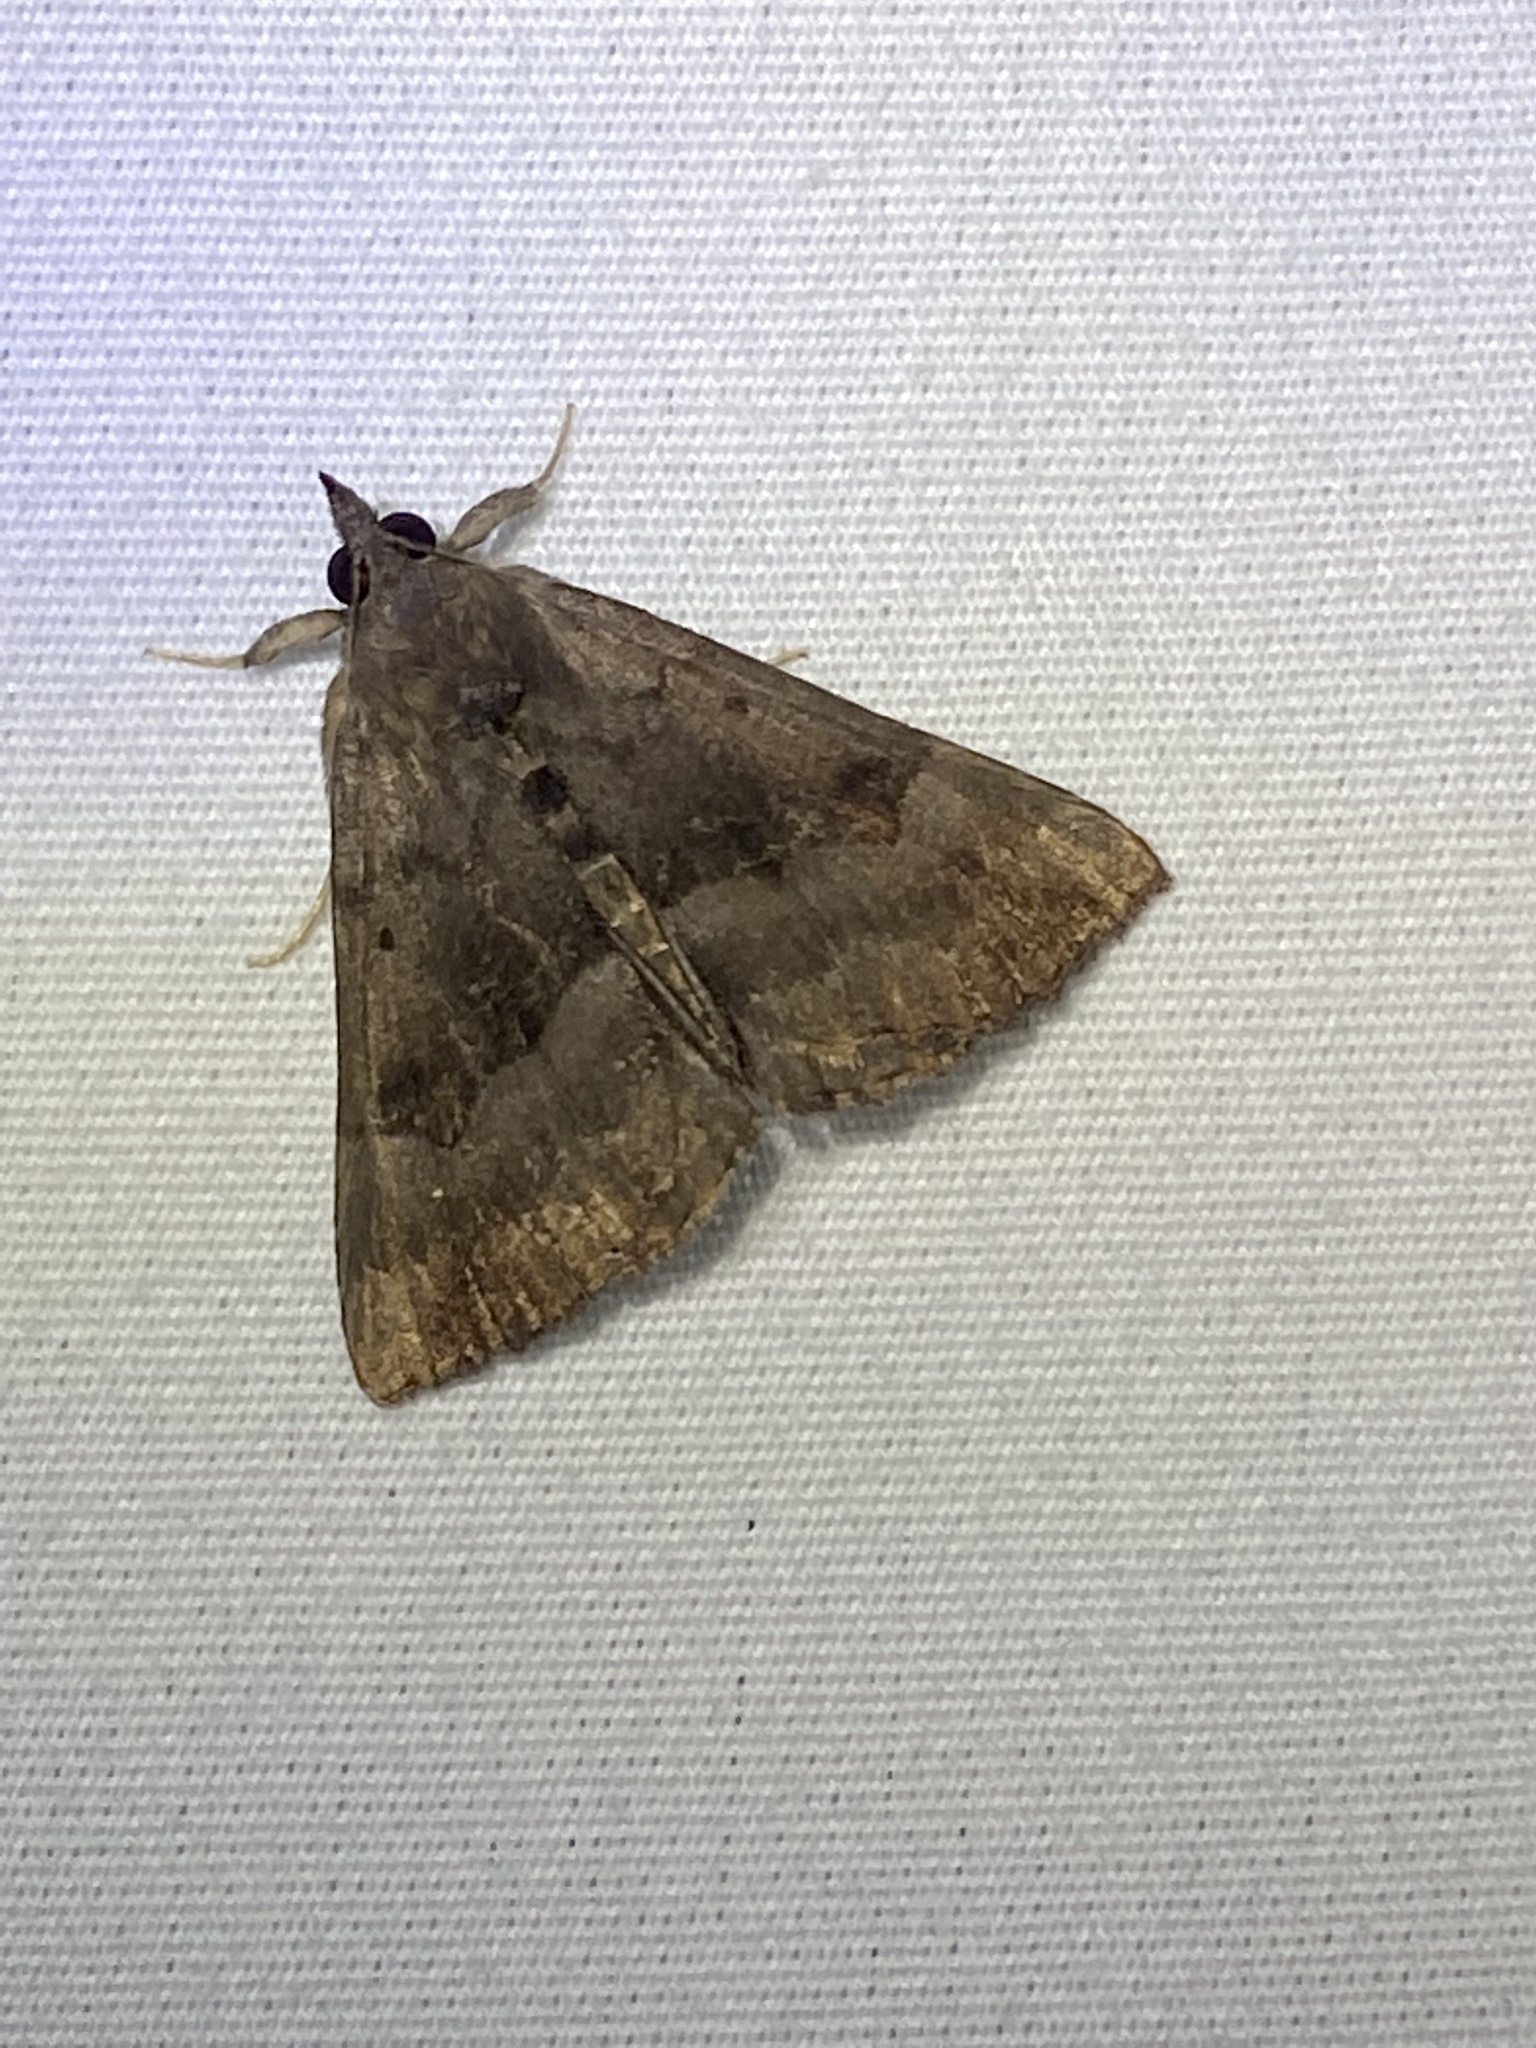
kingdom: Animalia
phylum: Arthropoda
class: Insecta
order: Lepidoptera
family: Erebidae
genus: Hypena
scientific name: Hypena madefactalis
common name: Gray-edged snout
